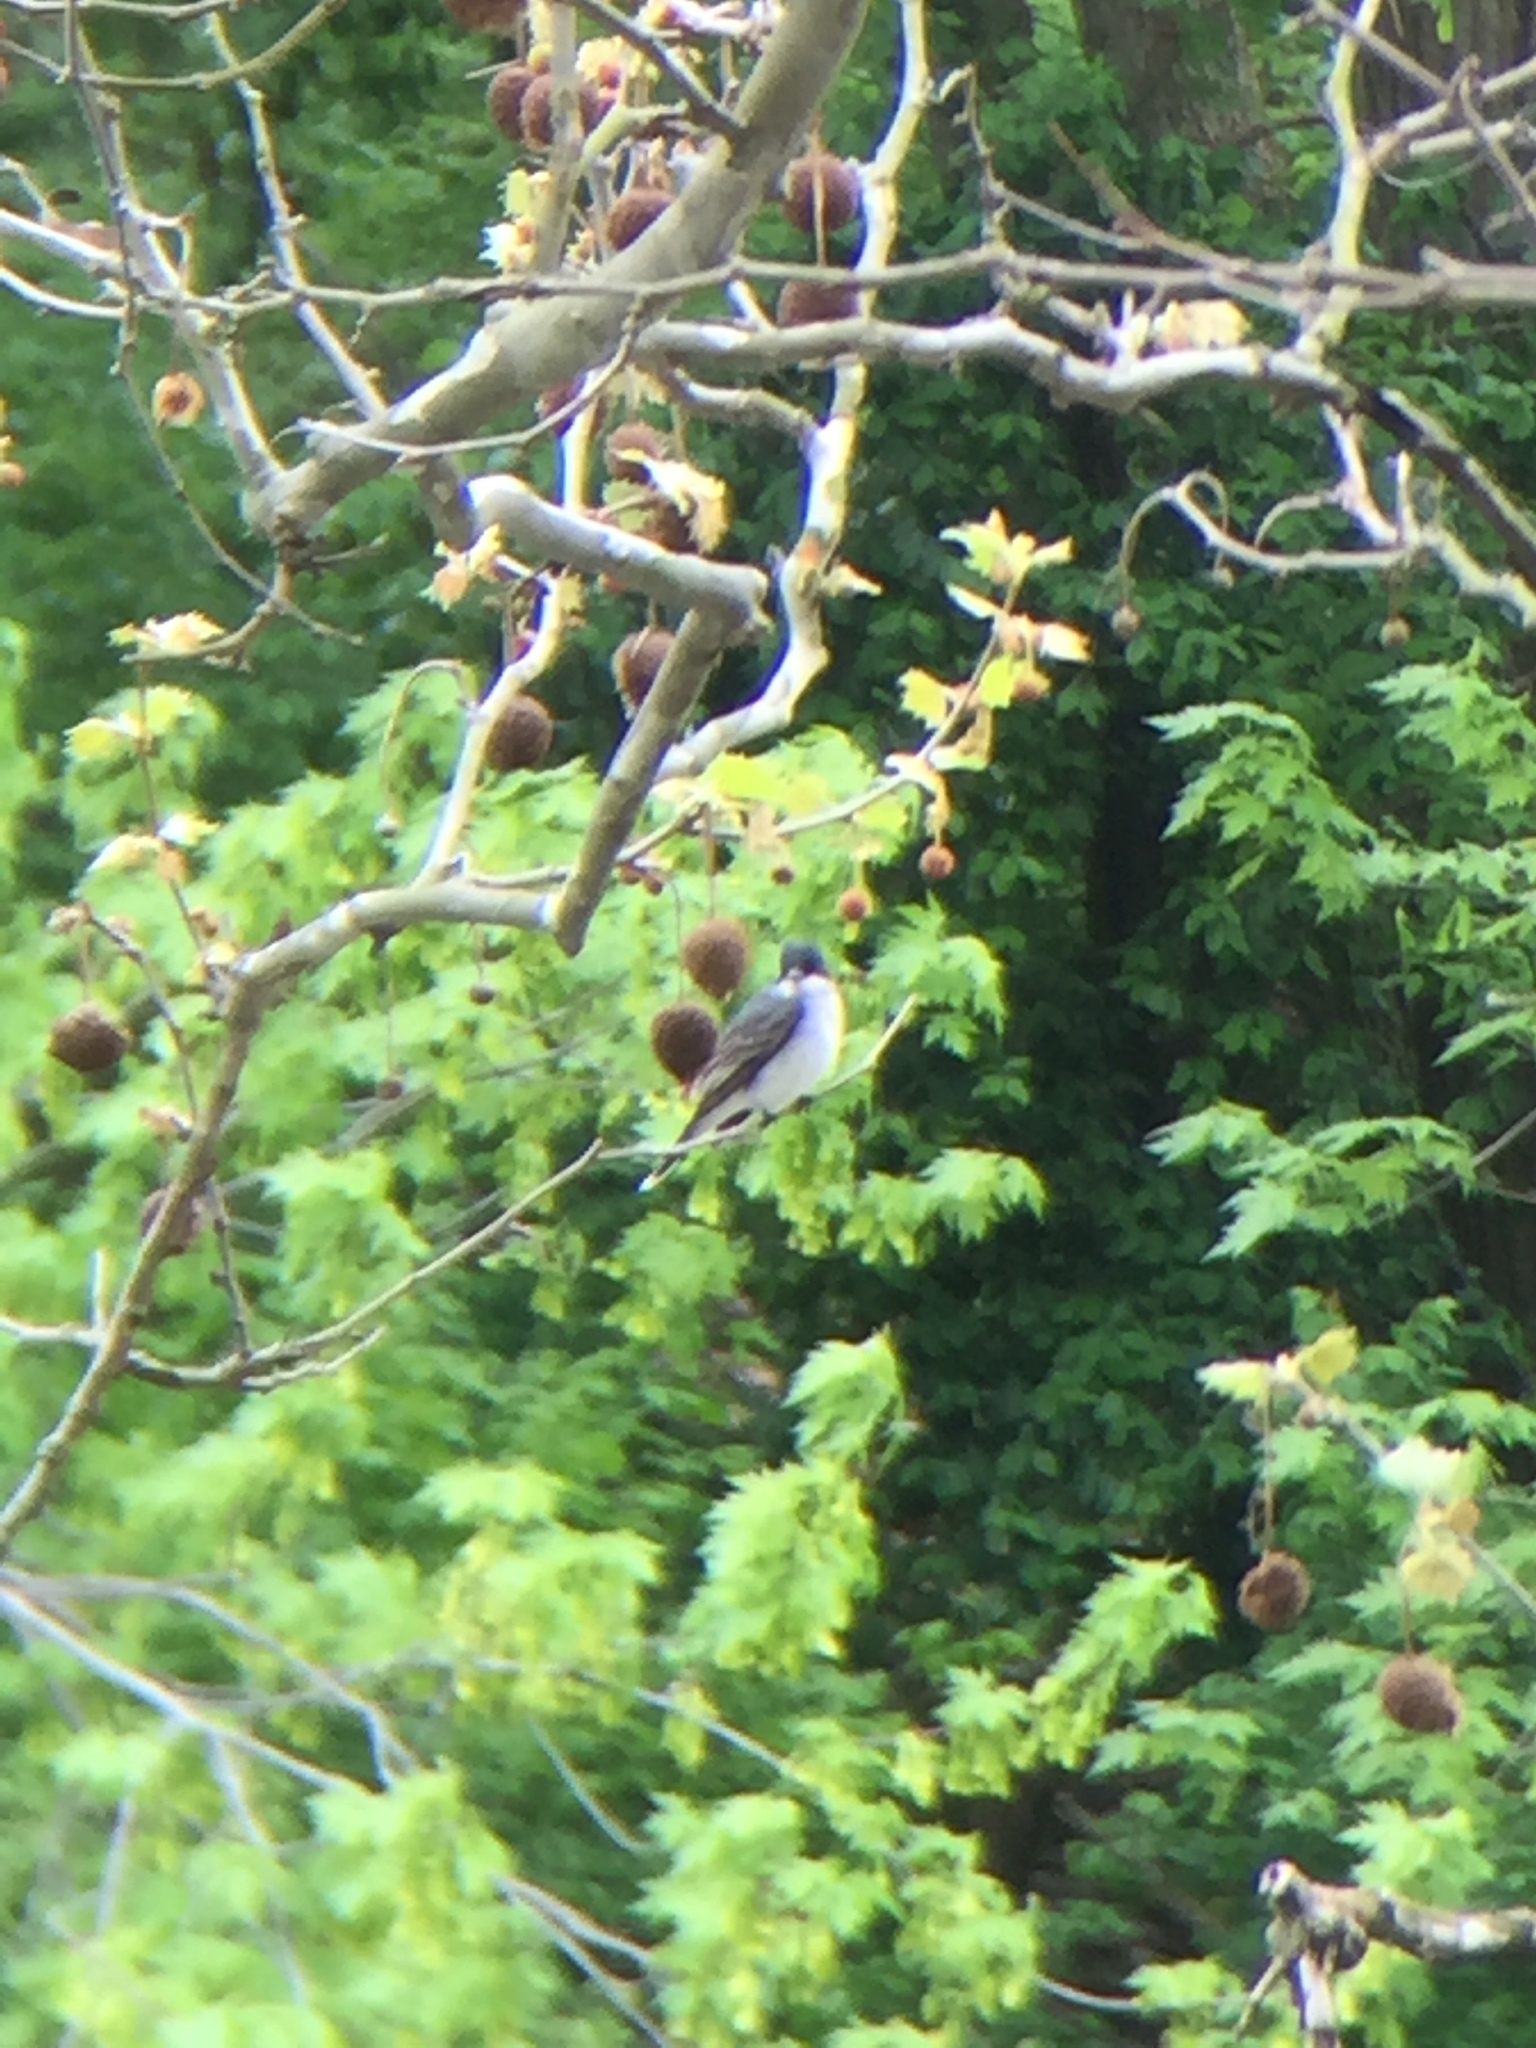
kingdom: Animalia
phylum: Chordata
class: Aves
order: Passeriformes
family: Tyrannidae
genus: Tyrannus
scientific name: Tyrannus tyrannus
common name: Eastern kingbird
